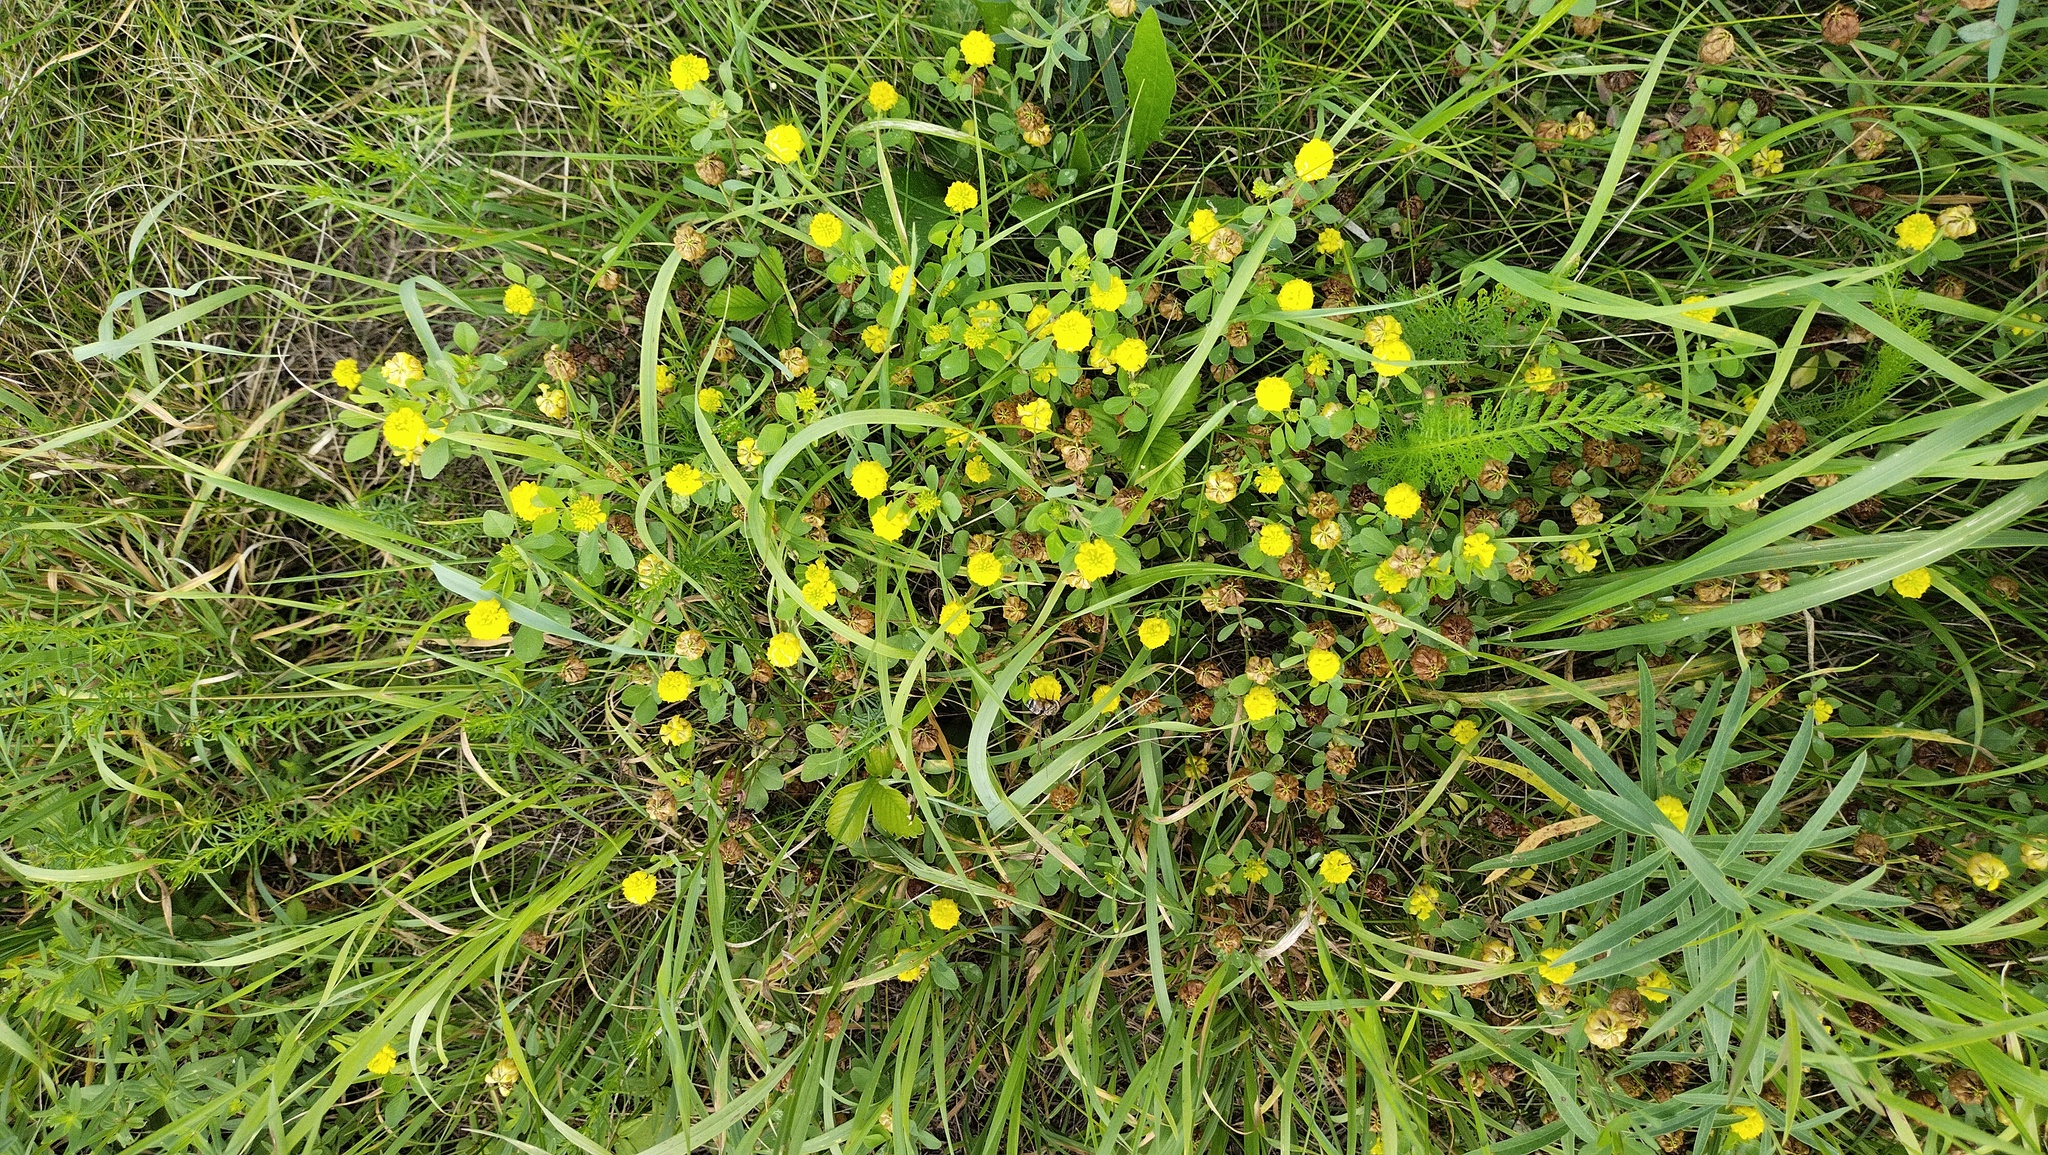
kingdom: Plantae
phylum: Tracheophyta
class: Magnoliopsida
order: Fabales
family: Fabaceae
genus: Trifolium
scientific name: Trifolium campestre
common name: Field clover
